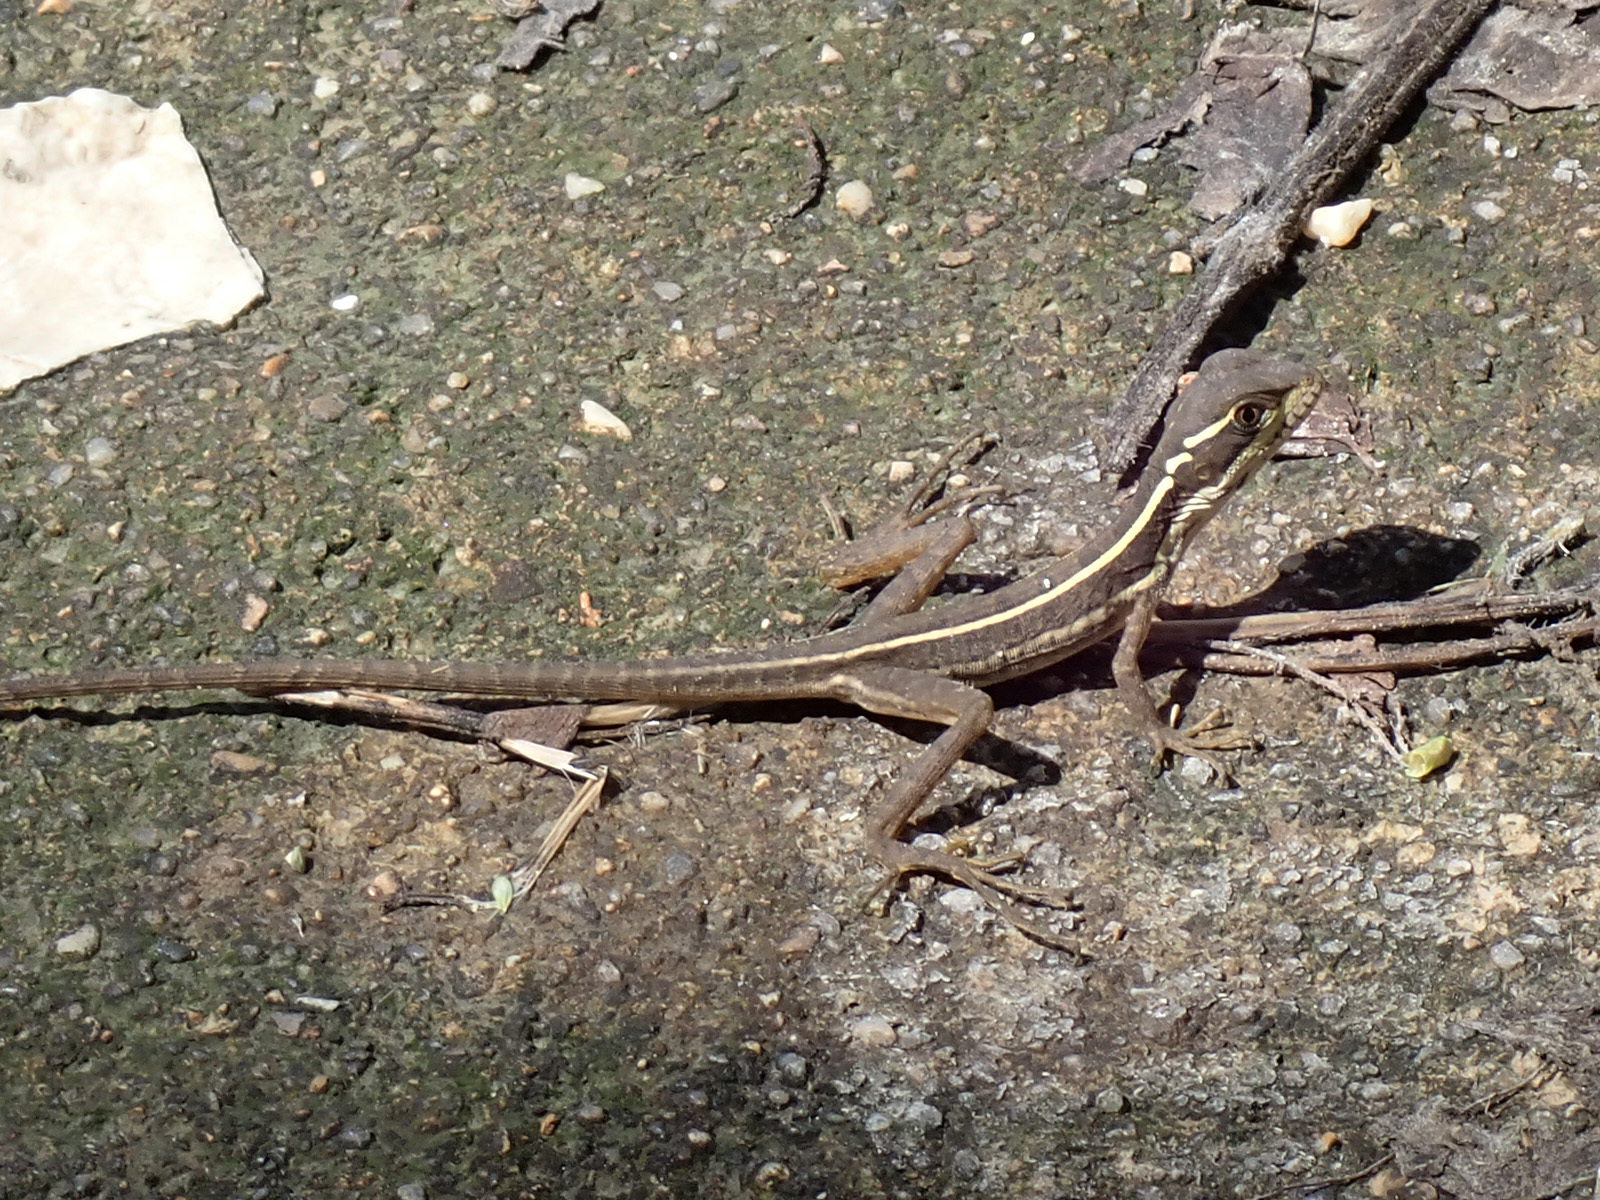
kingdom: Animalia
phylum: Chordata
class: Squamata
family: Corytophanidae
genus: Basiliscus
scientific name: Basiliscus vittatus
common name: Brown basilisk
